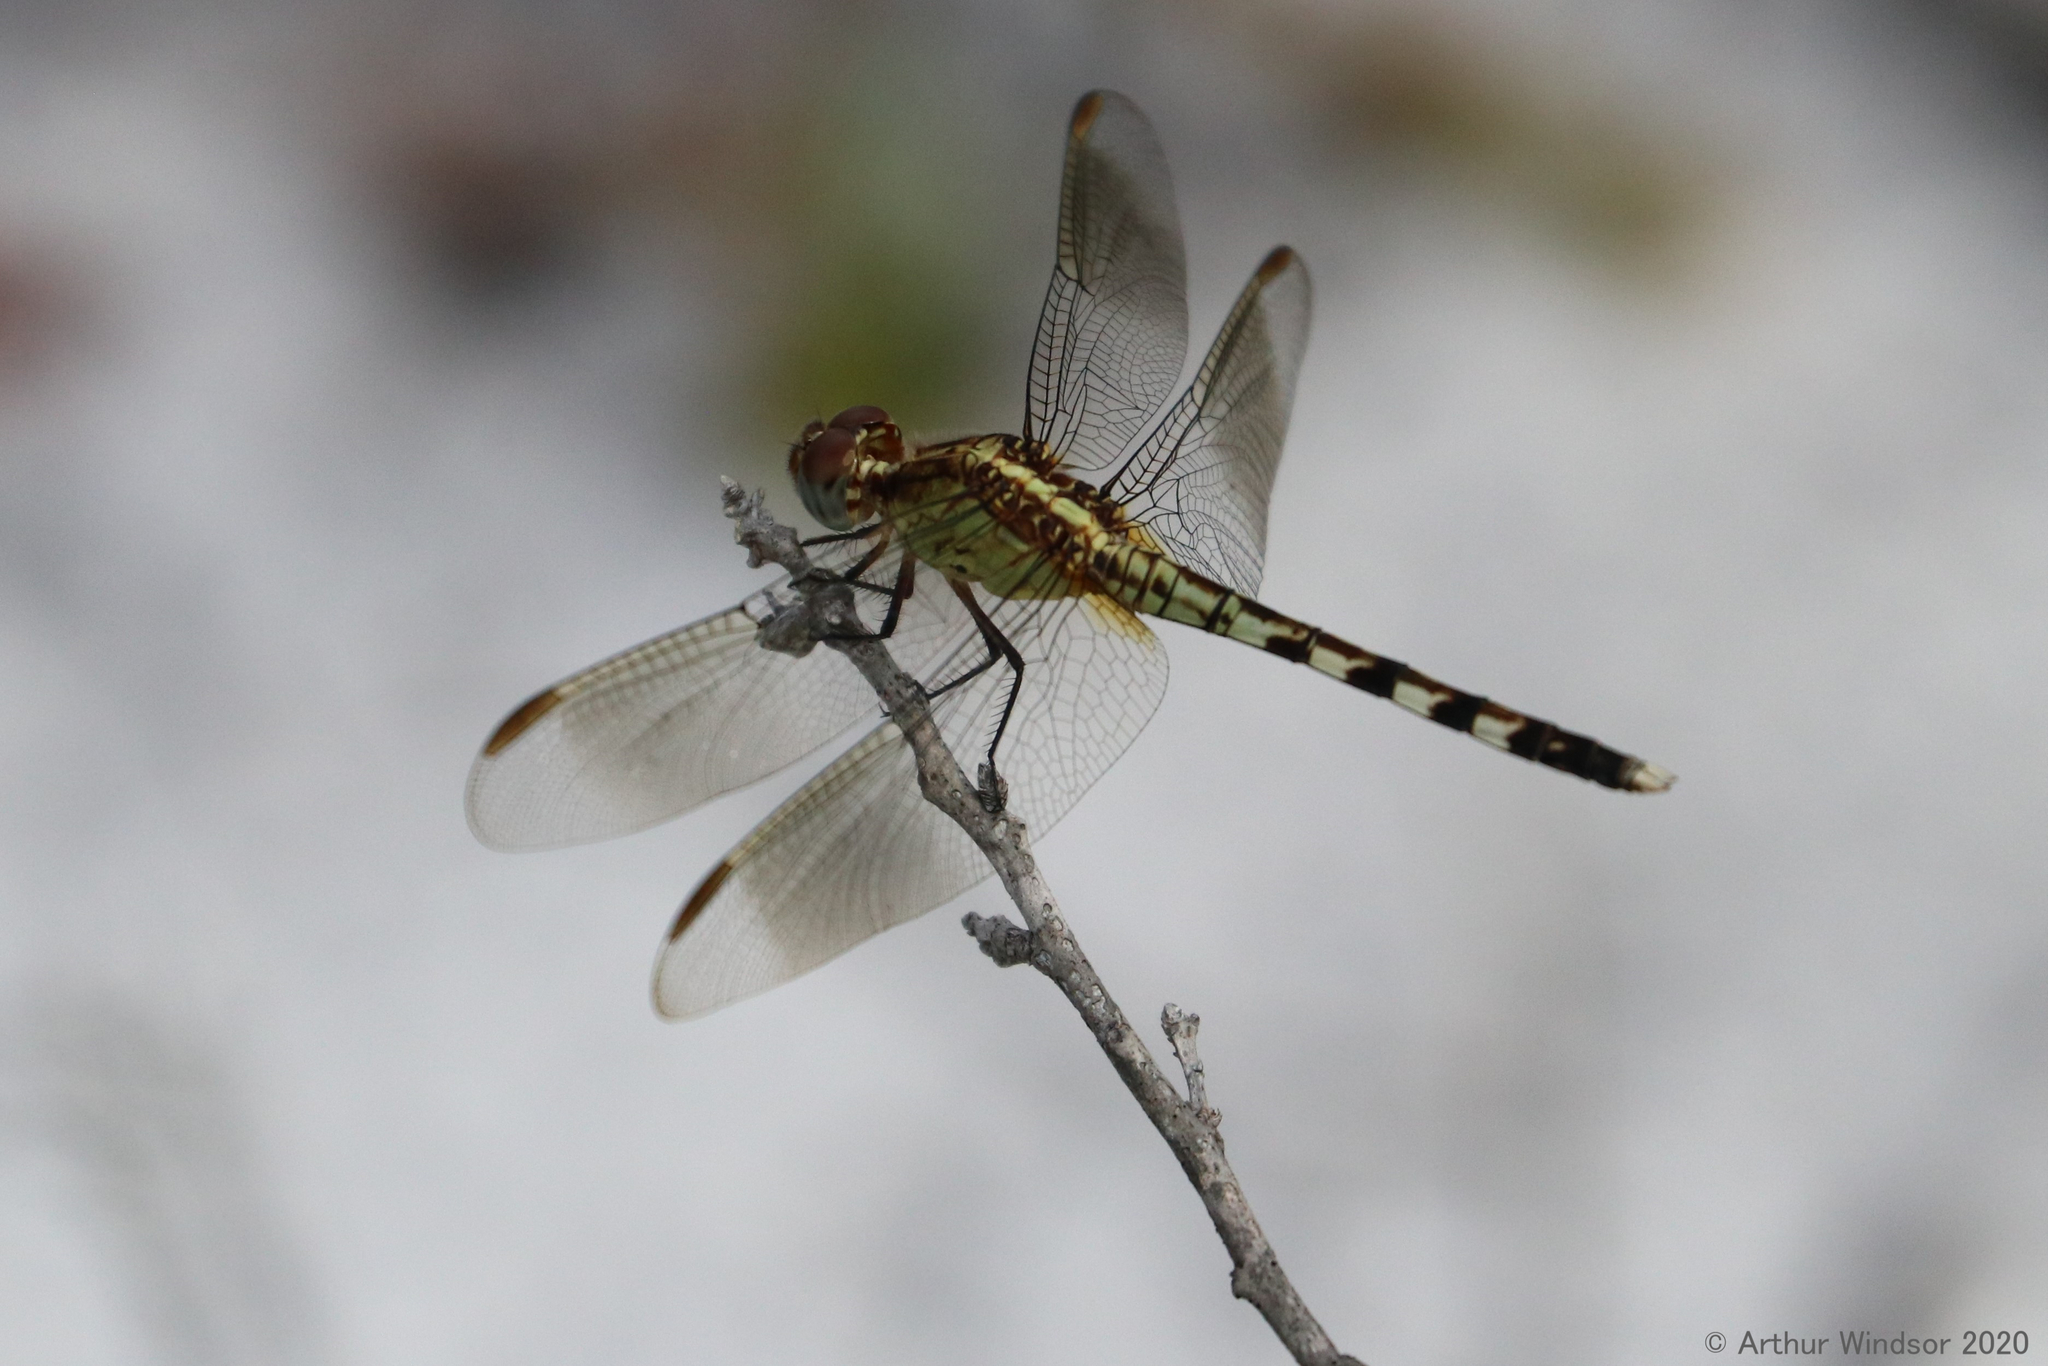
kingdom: Animalia
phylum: Arthropoda
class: Insecta
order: Odonata
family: Libellulidae
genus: Erythrodiplax
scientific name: Erythrodiplax umbrata
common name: Band-winged dragonlet
